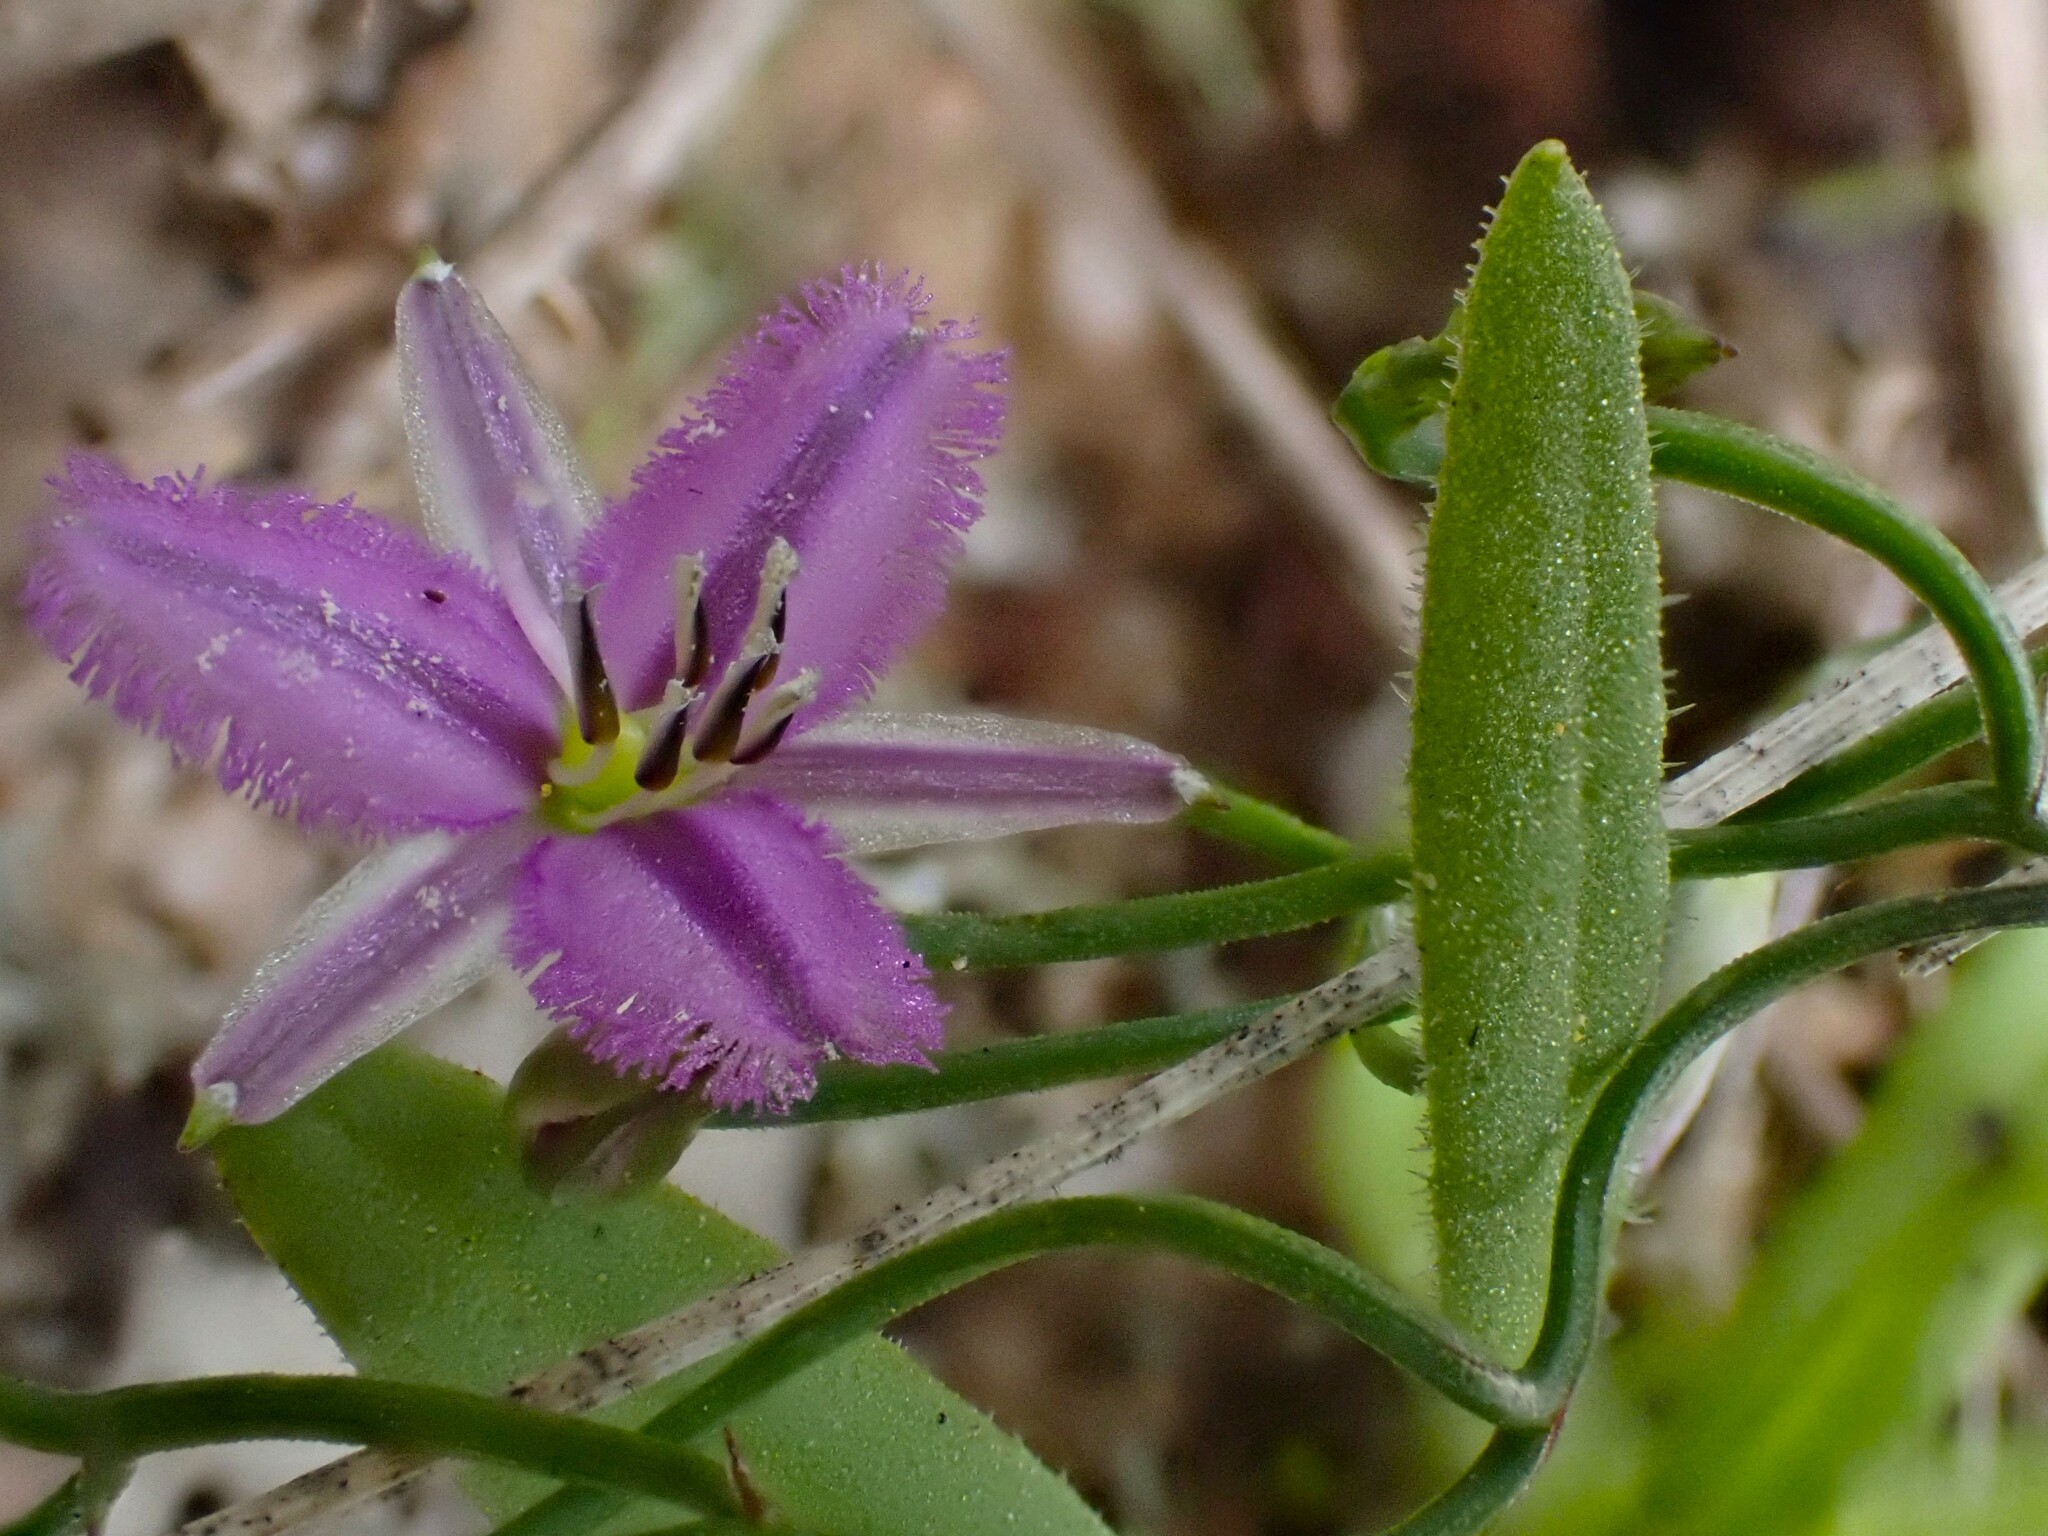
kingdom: Plantae
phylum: Tracheophyta
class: Liliopsida
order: Asparagales
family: Asparagaceae
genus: Thysanotus
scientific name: Thysanotus patersonii
